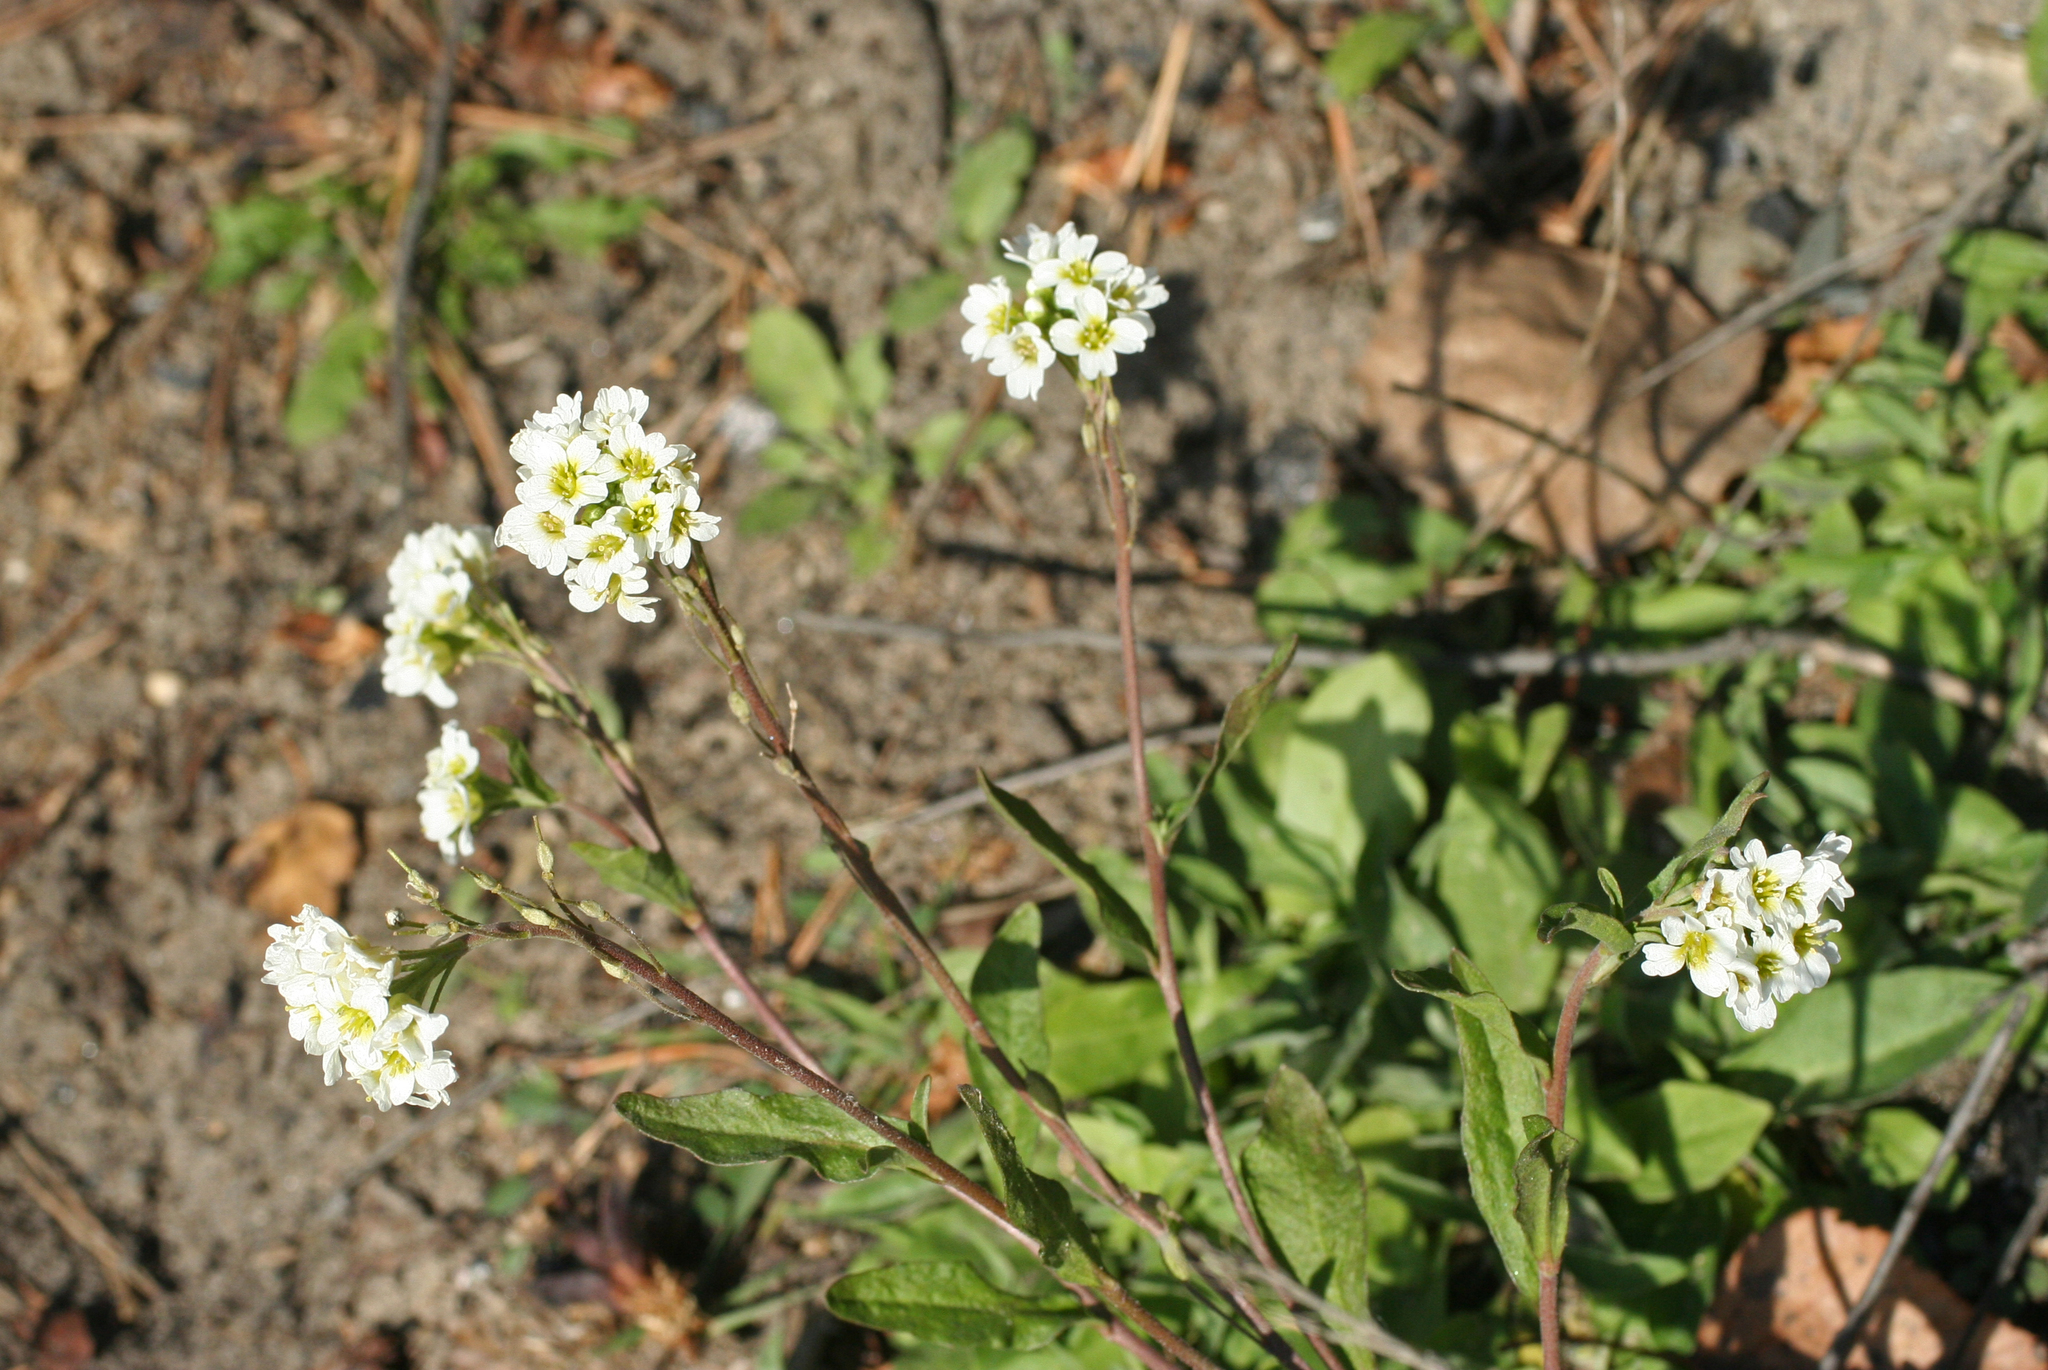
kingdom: Plantae
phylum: Tracheophyta
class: Magnoliopsida
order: Brassicales
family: Brassicaceae
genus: Berteroa
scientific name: Berteroa incana
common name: Hoary alison
